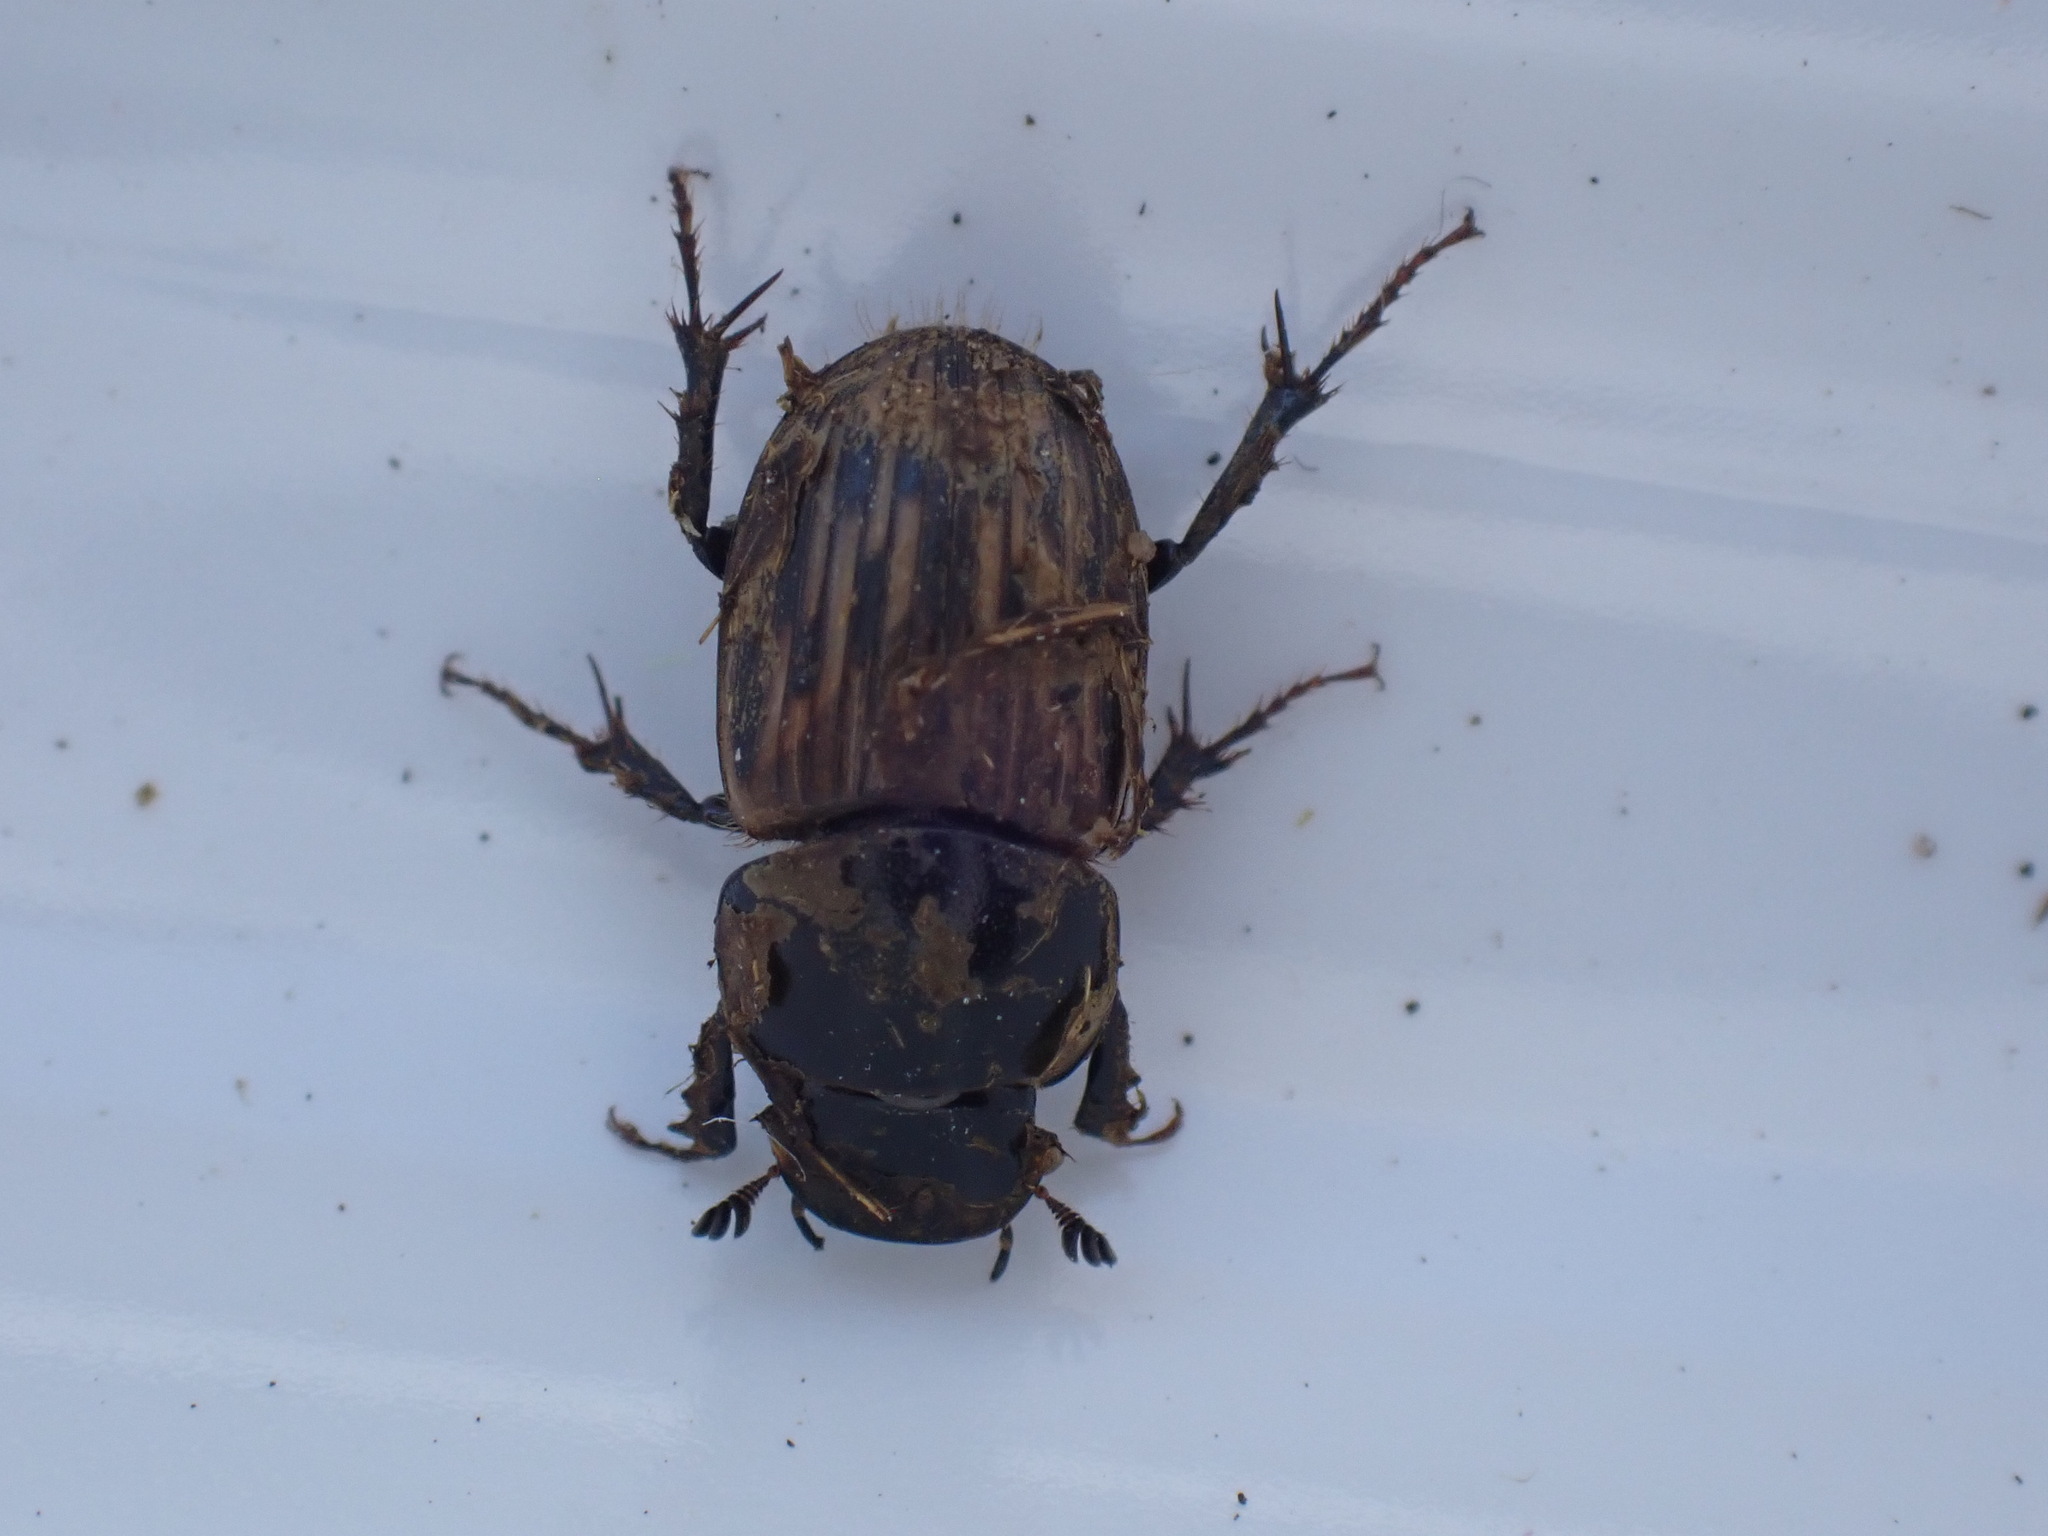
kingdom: Animalia
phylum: Arthropoda
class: Insecta
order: Coleoptera
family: Scarabaeidae
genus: Acrossus
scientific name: Acrossus luridus
